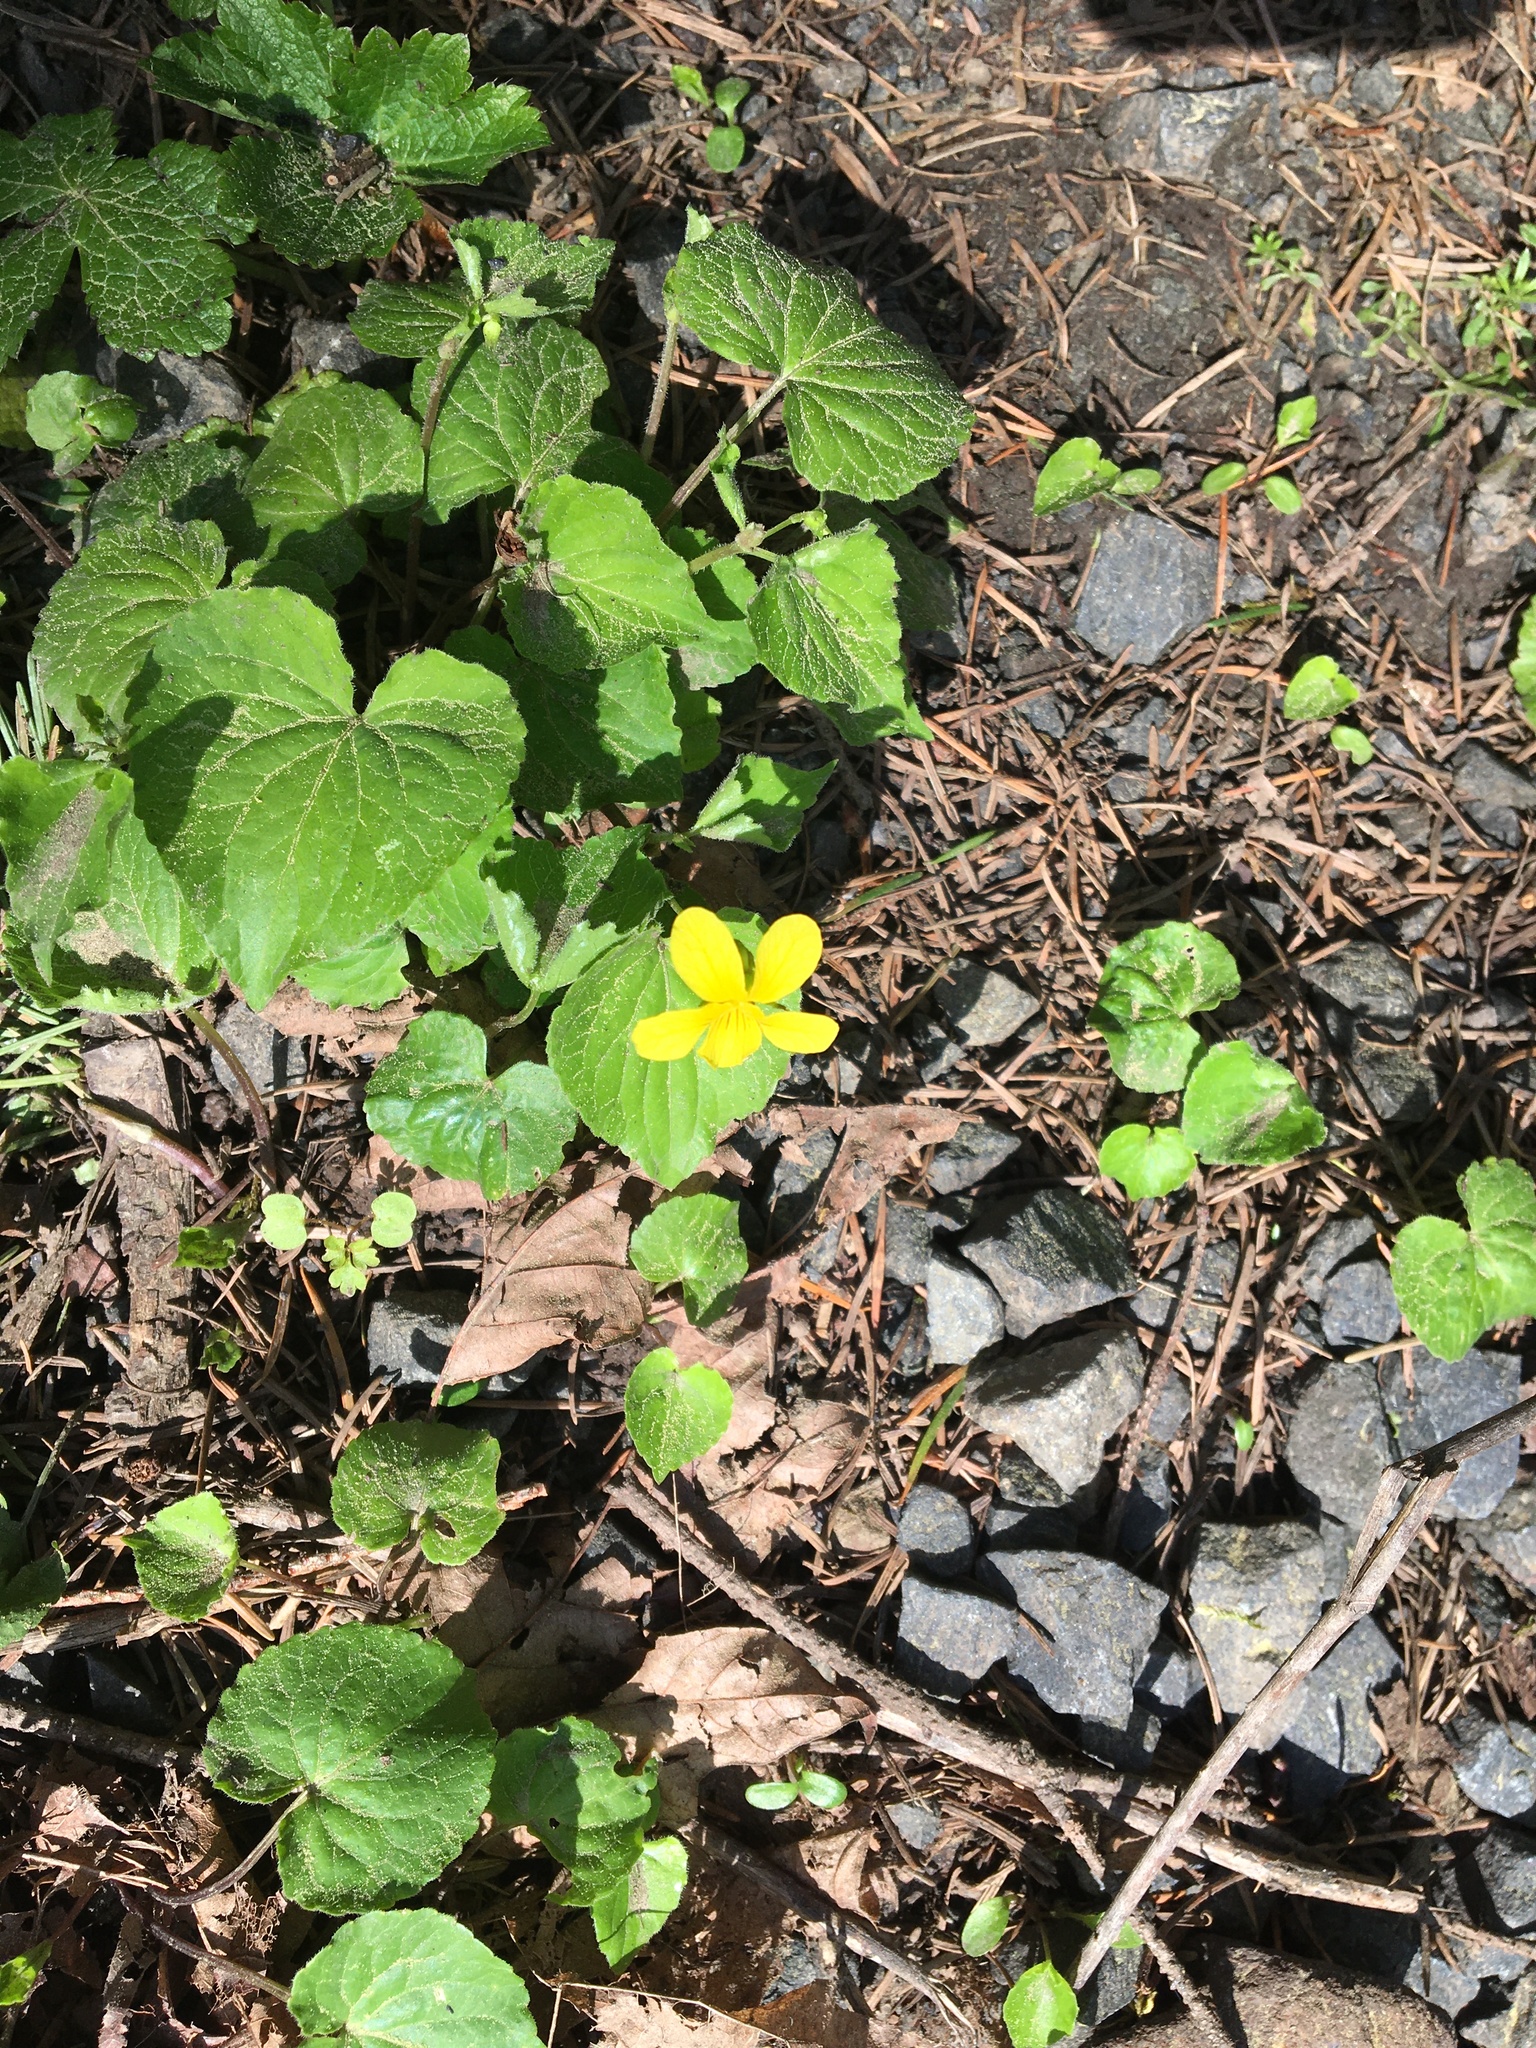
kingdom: Plantae
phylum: Tracheophyta
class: Magnoliopsida
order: Malpighiales
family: Violaceae
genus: Viola
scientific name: Viola glabella
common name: Stream violet
